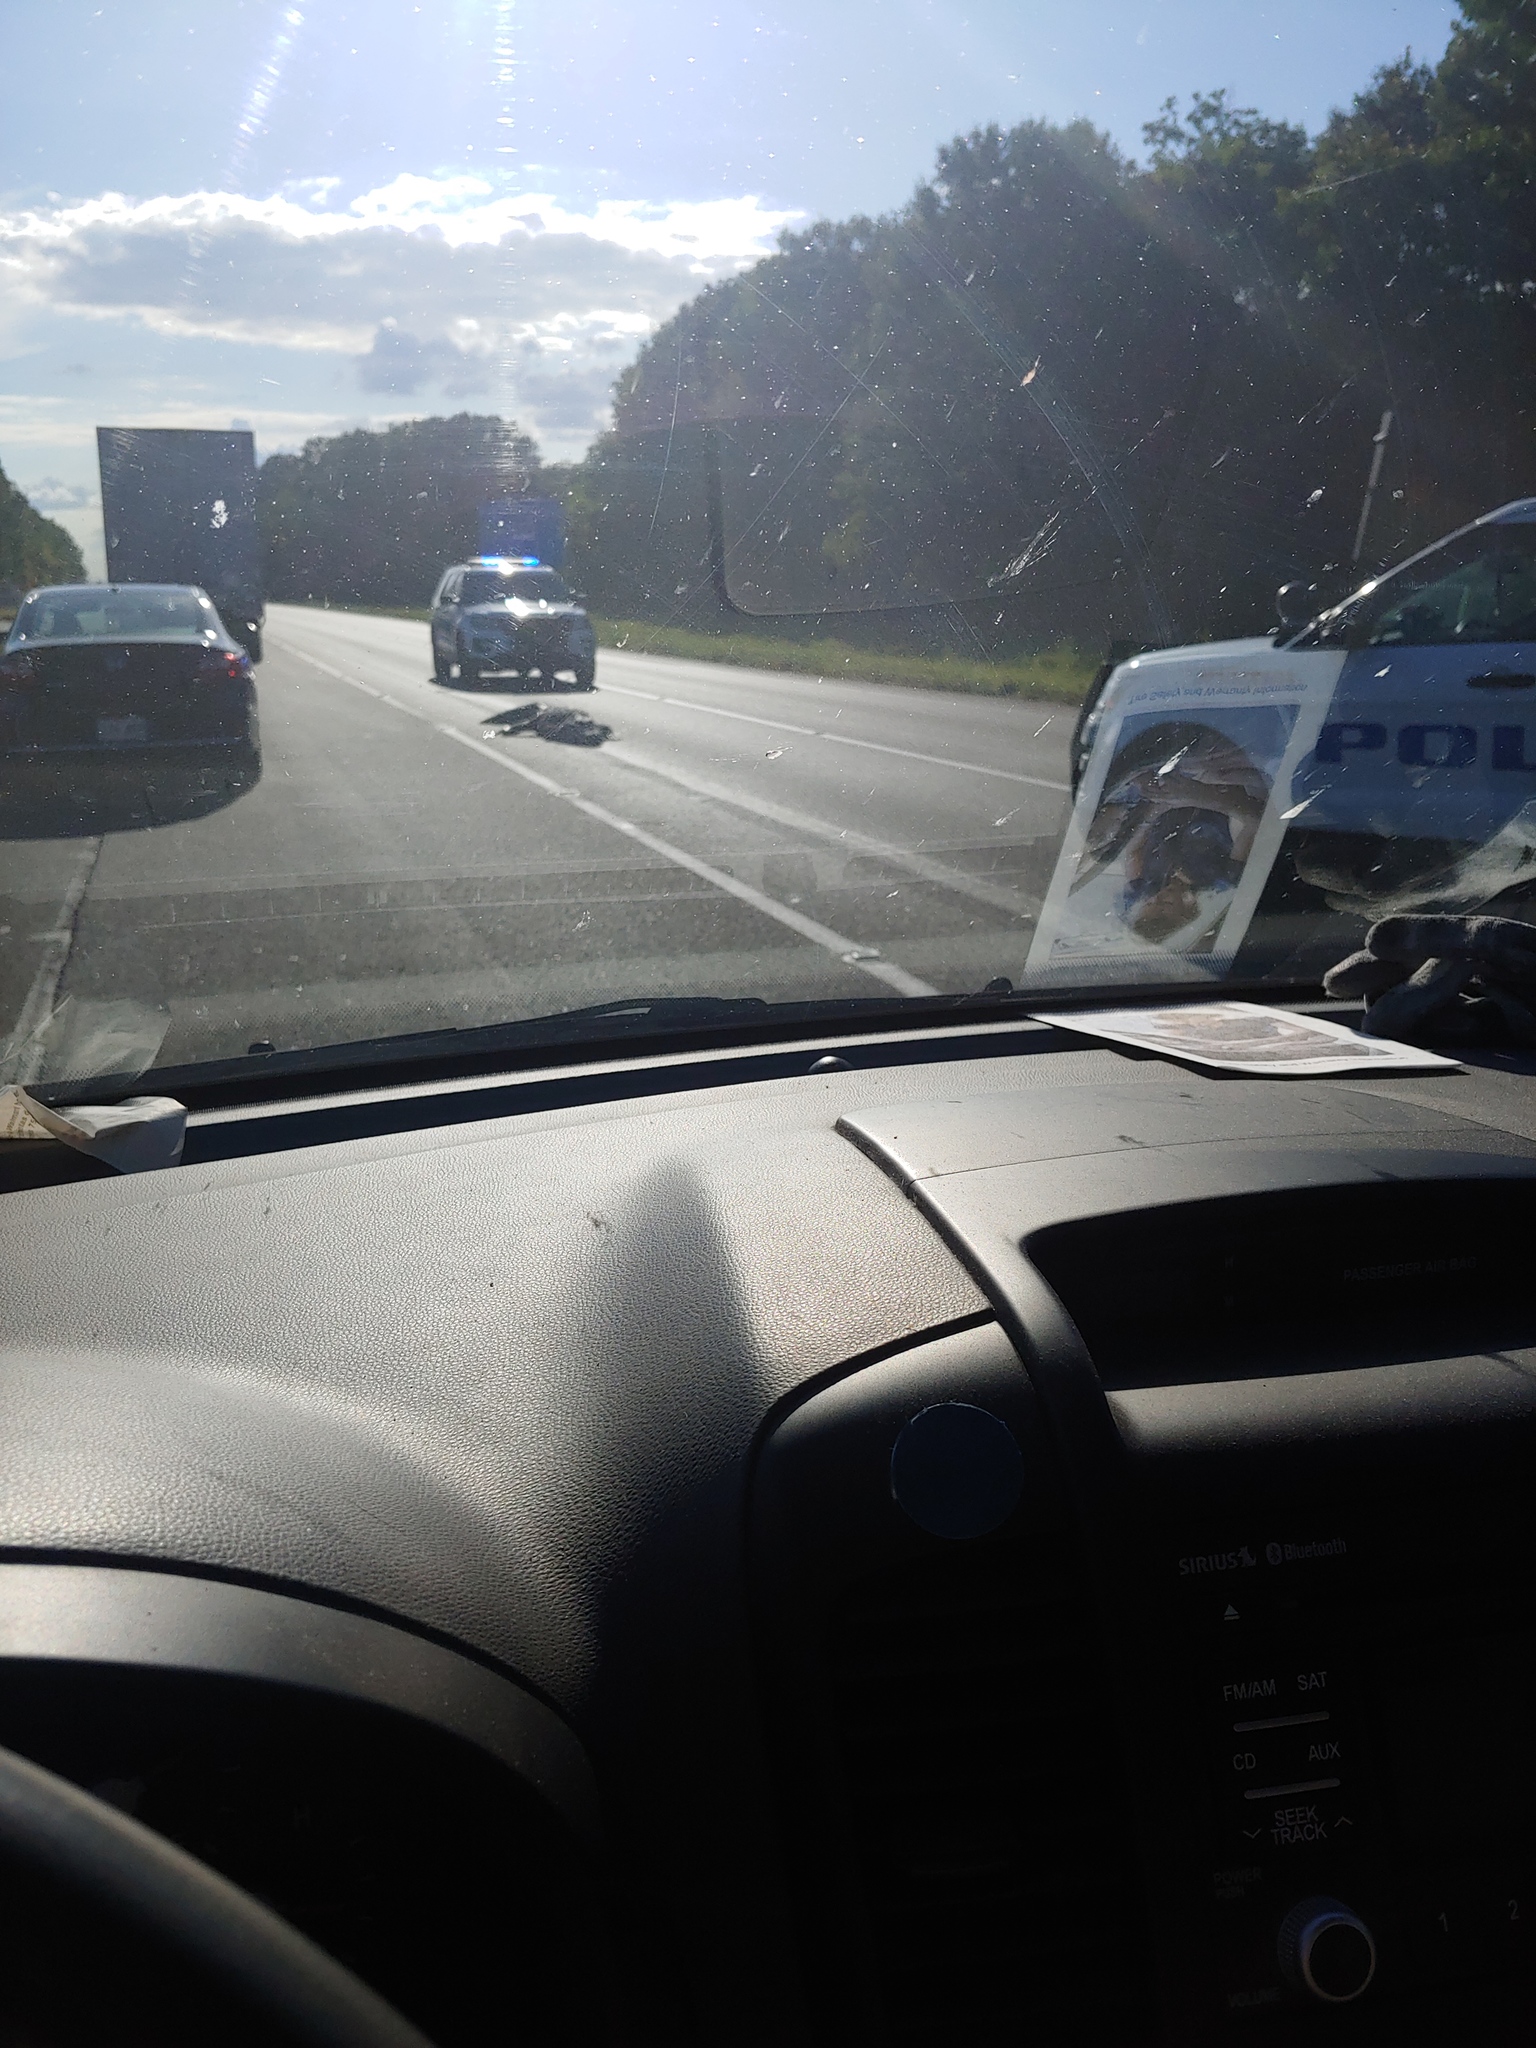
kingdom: Animalia
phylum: Chordata
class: Crocodylia
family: Alligatoridae
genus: Alligator
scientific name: Alligator mississippiensis
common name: American alligator
